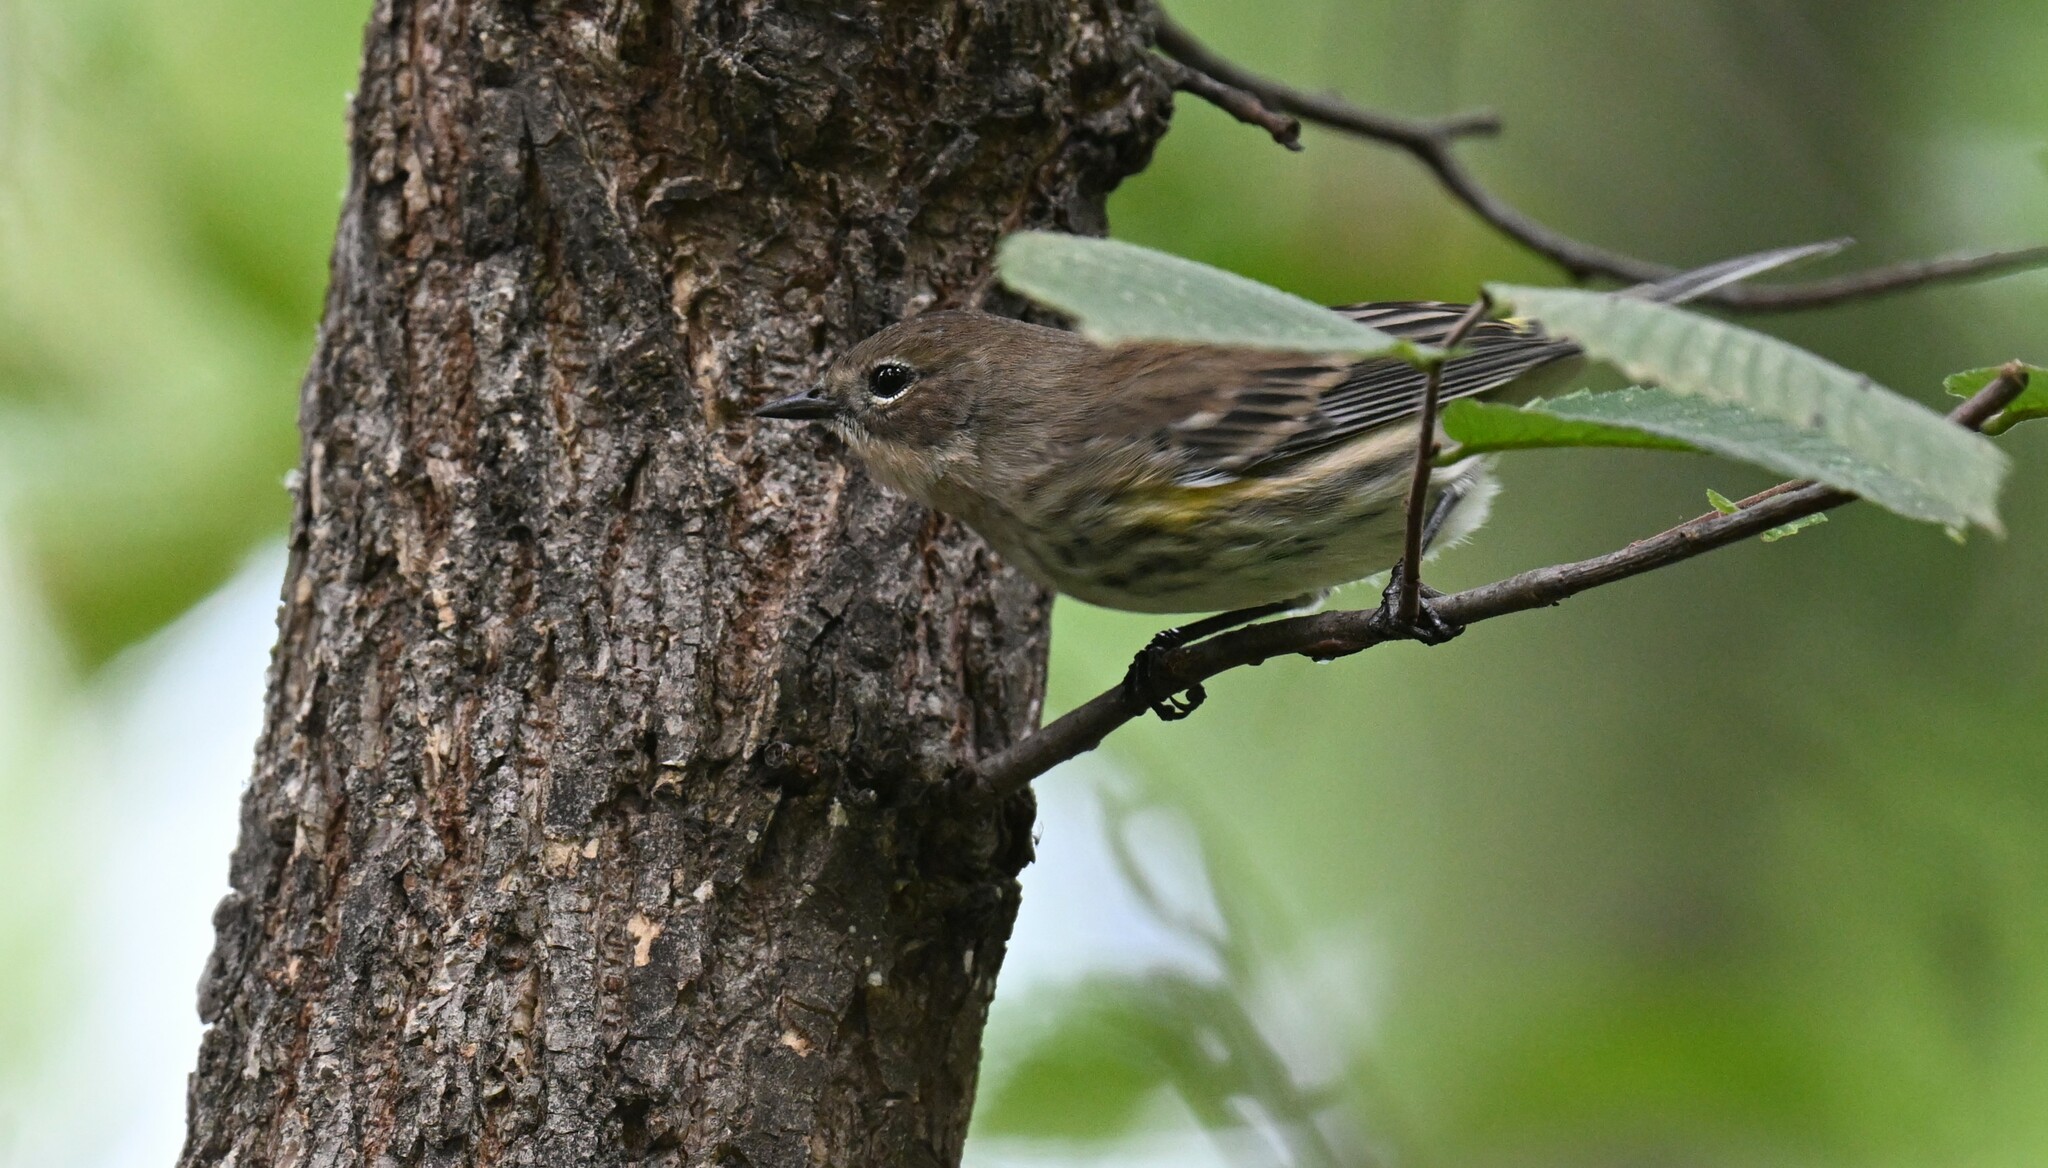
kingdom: Animalia
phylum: Chordata
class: Aves
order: Passeriformes
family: Parulidae
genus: Setophaga
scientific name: Setophaga coronata
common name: Myrtle warbler
